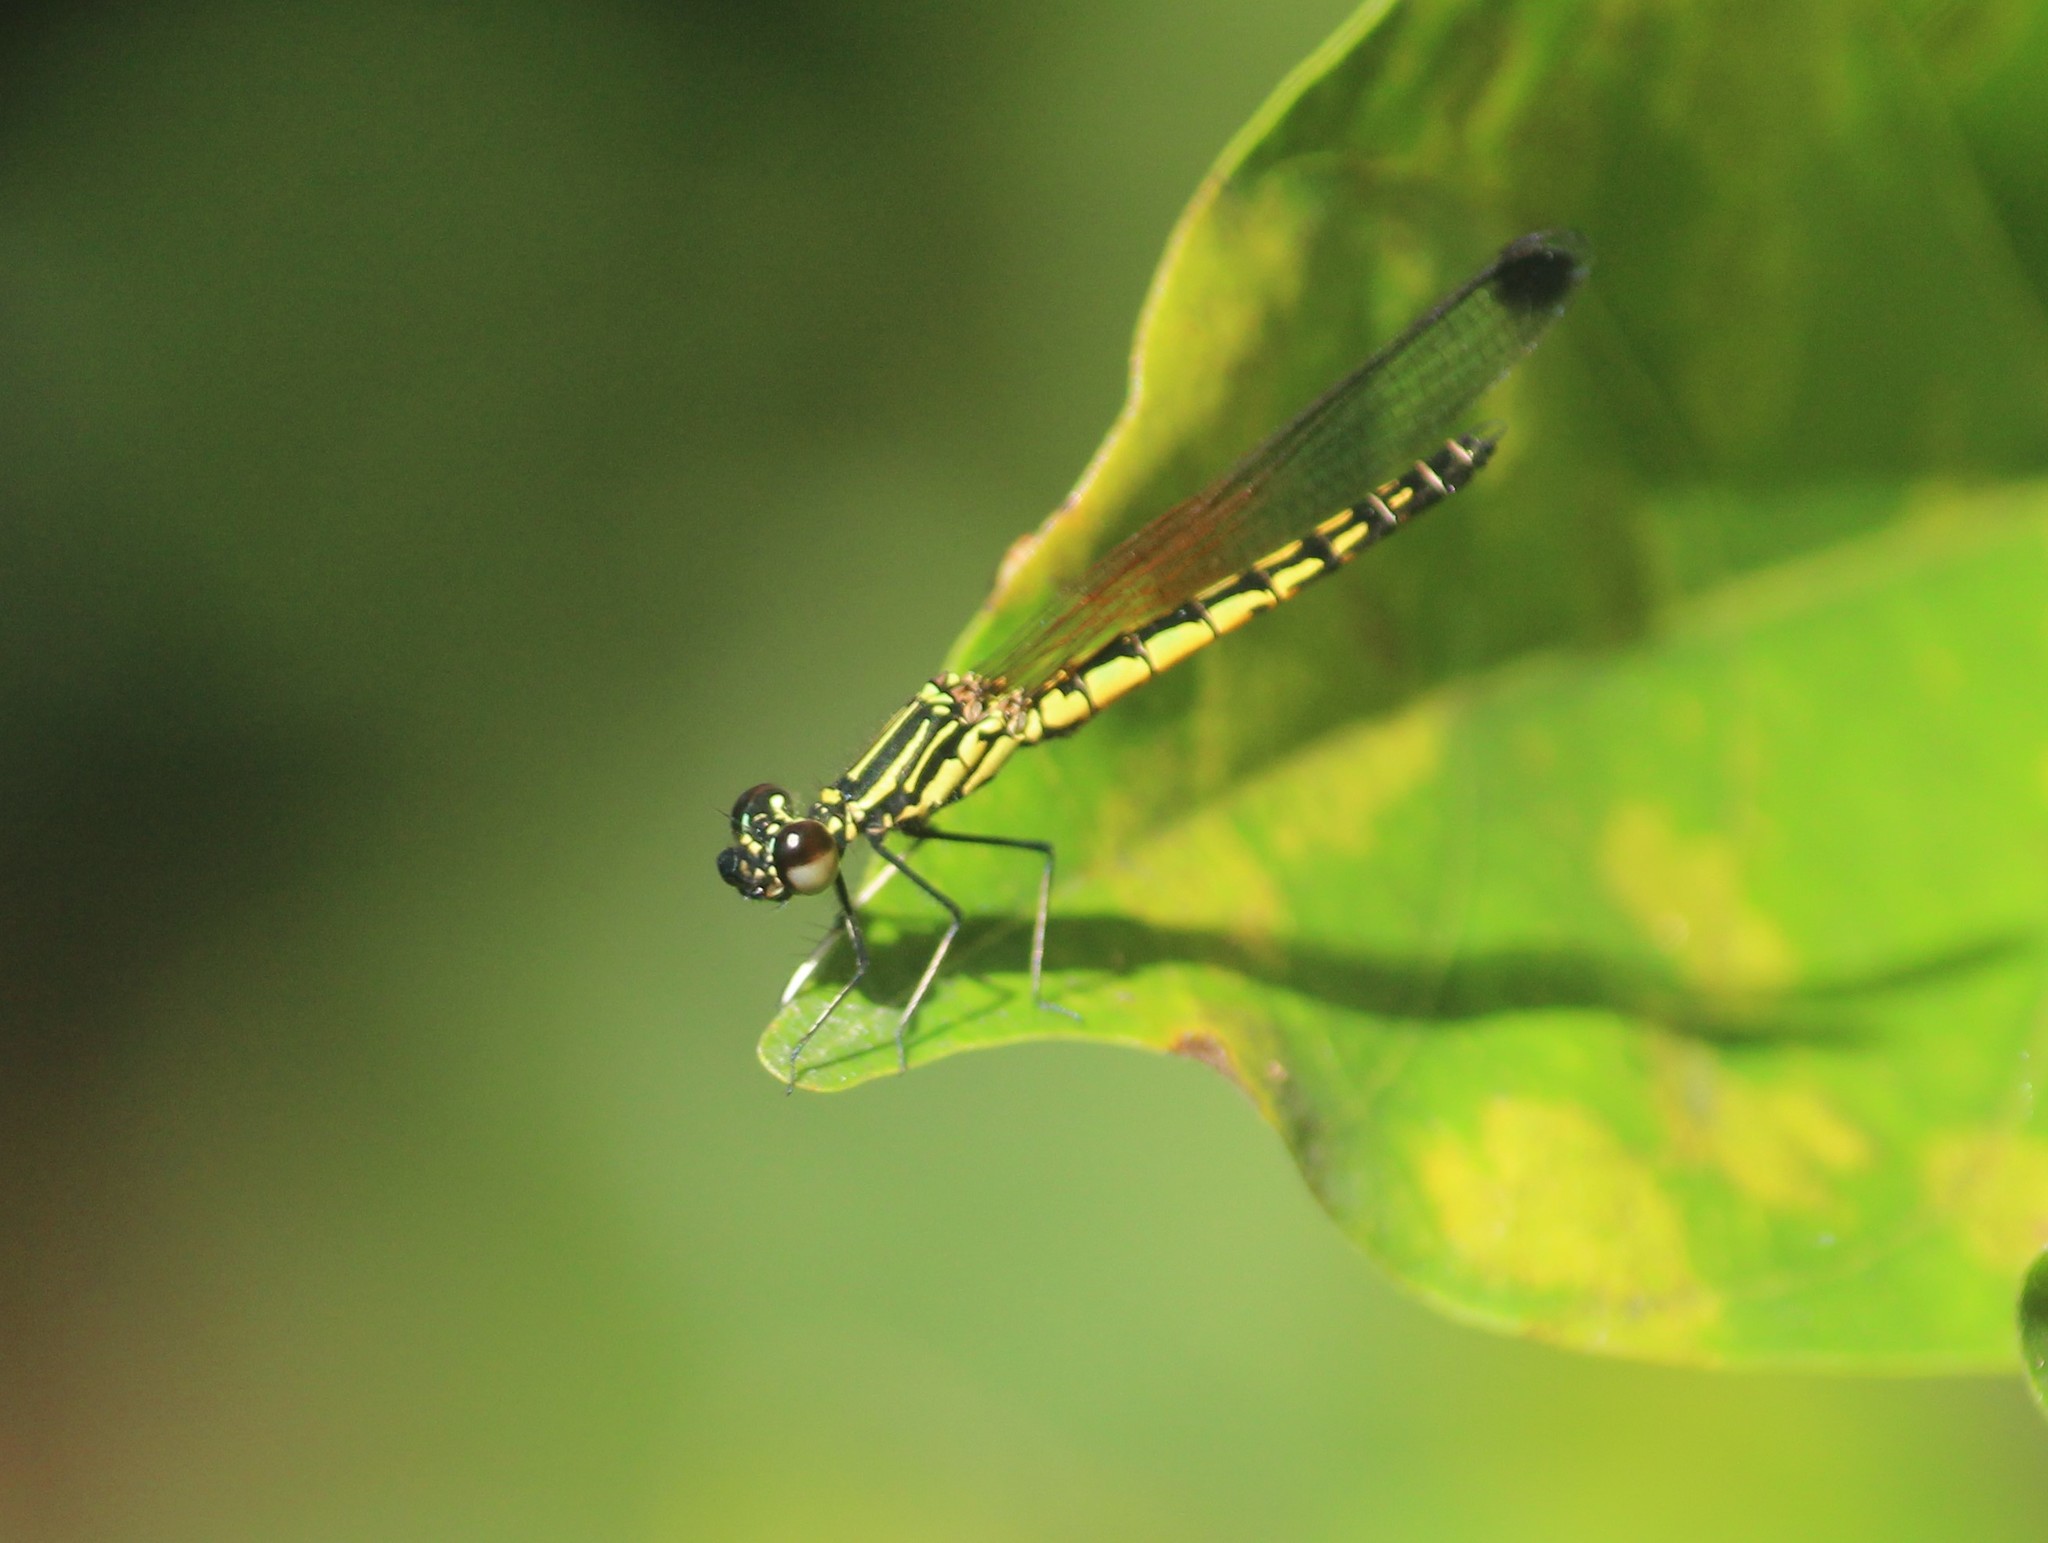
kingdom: Animalia
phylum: Arthropoda
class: Insecta
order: Odonata
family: Chlorocyphidae
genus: Libellago
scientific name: Libellago indica
